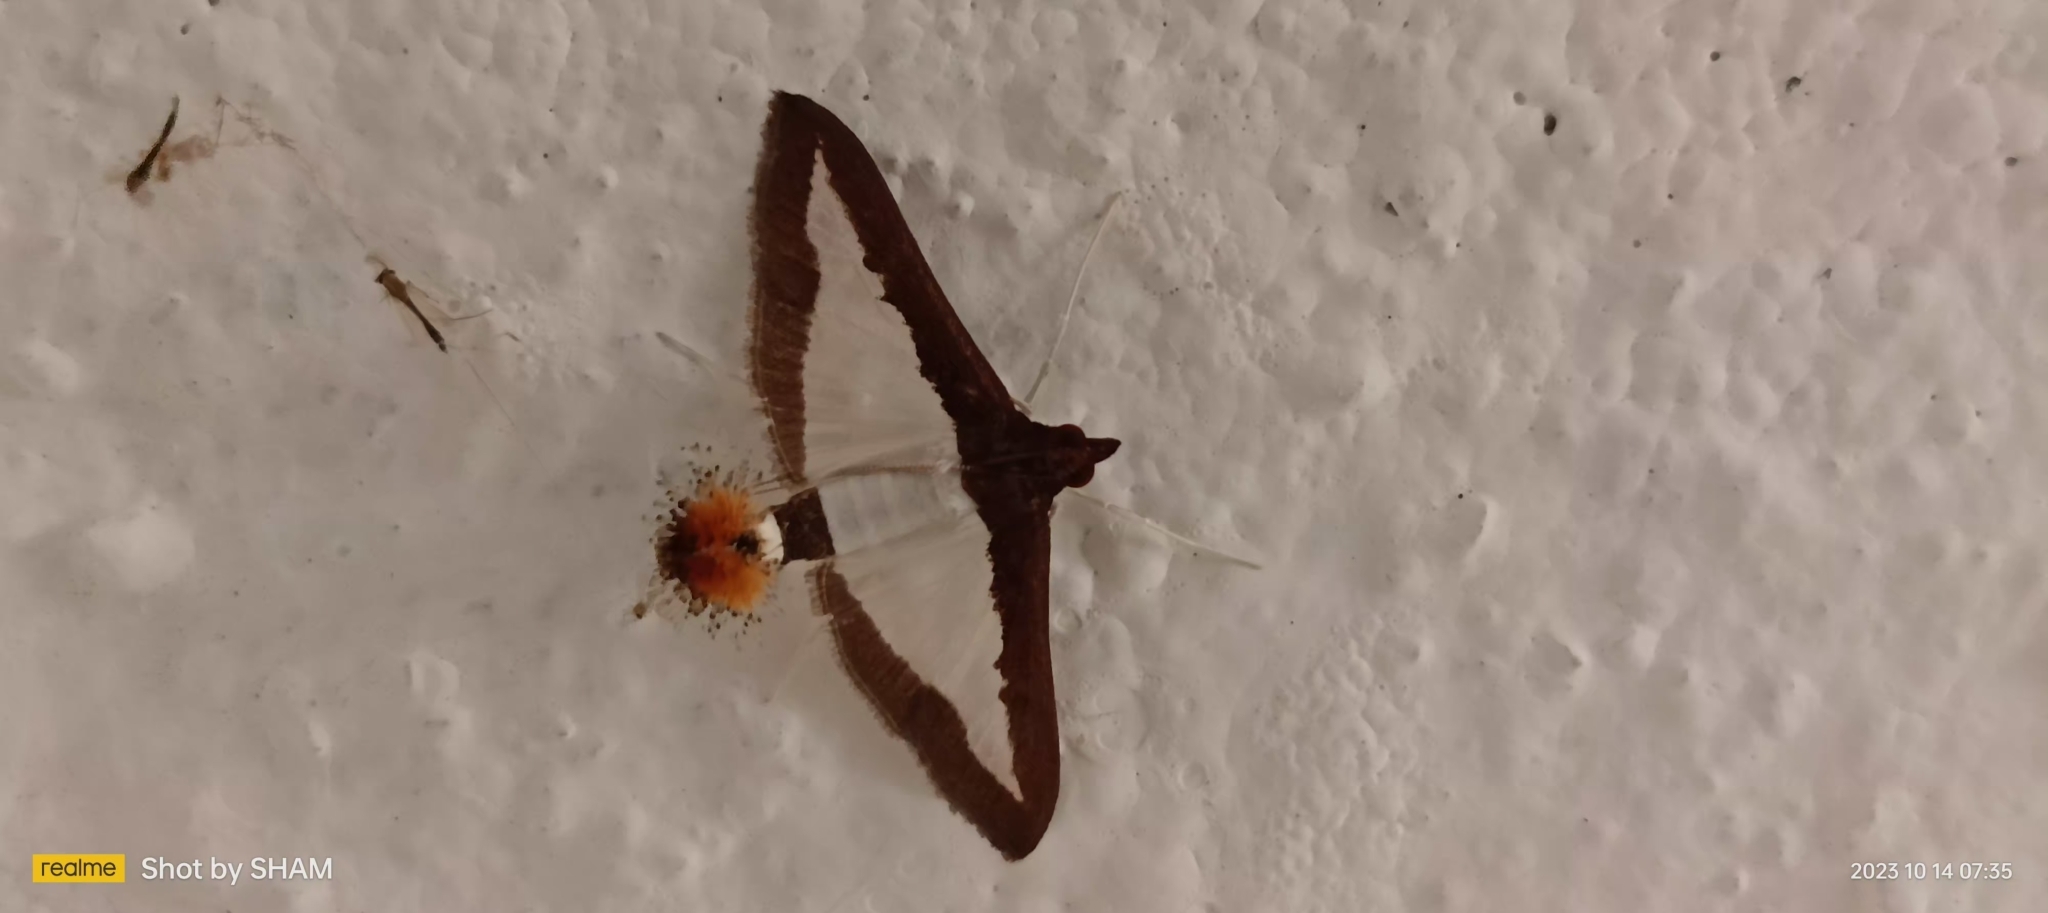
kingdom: Animalia
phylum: Arthropoda
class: Insecta
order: Lepidoptera
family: Crambidae
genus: Diaphania
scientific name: Diaphania indica
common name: Cucumber moth
